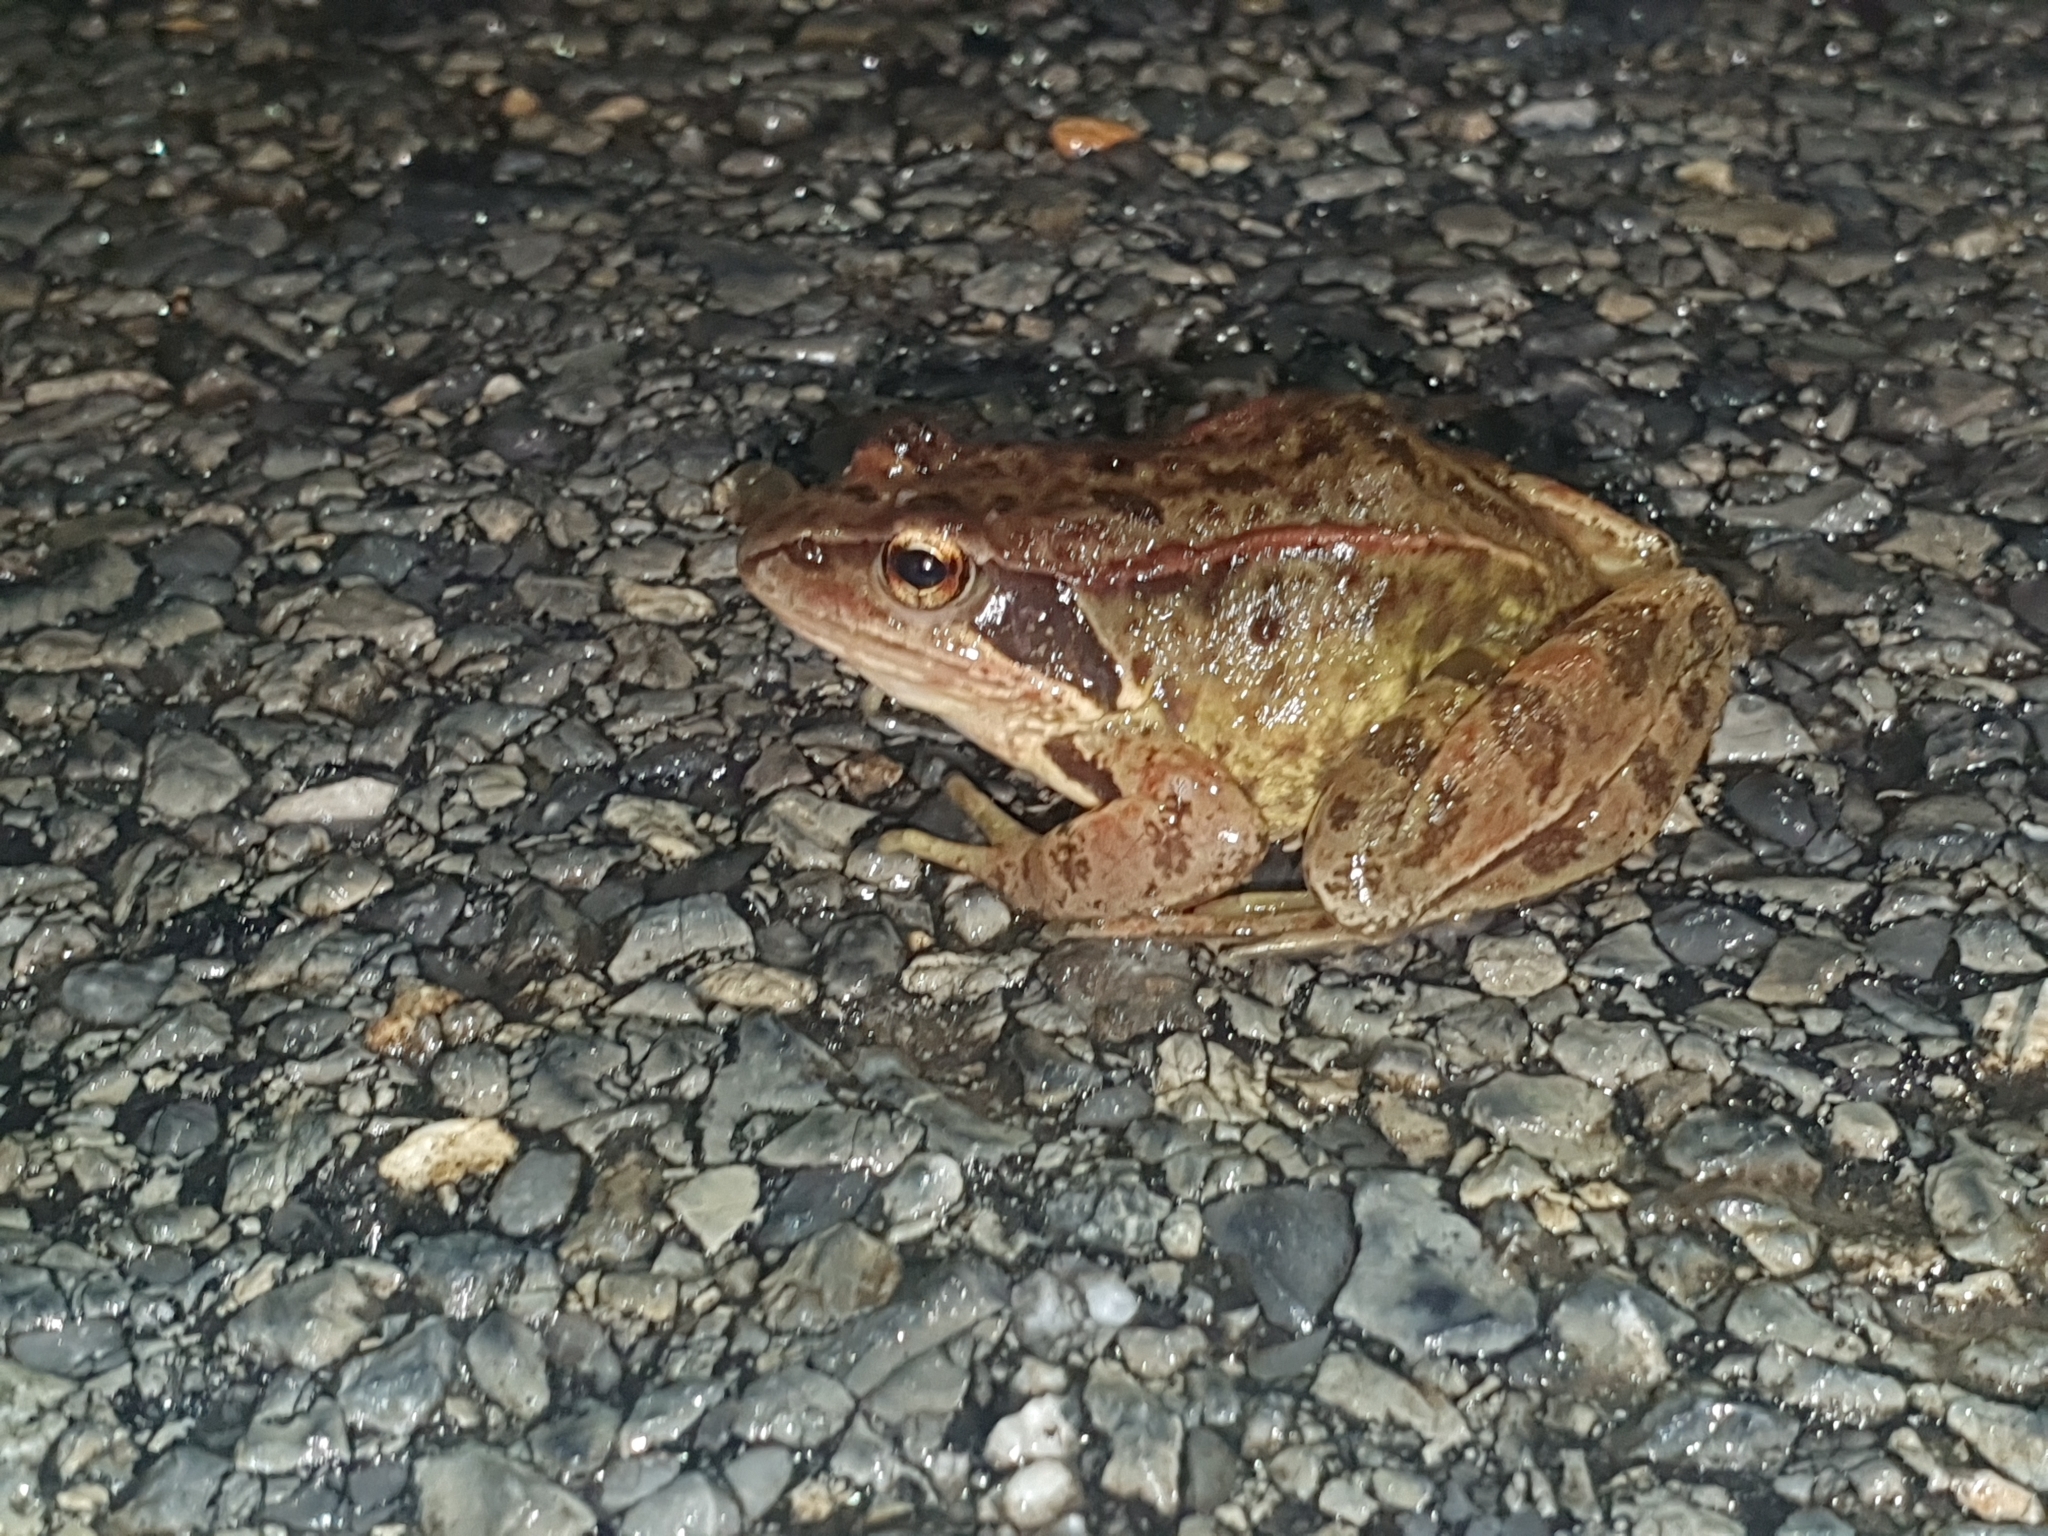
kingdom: Animalia
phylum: Chordata
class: Amphibia
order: Anura
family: Ranidae
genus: Rana
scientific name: Rana temporaria
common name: Common frog
